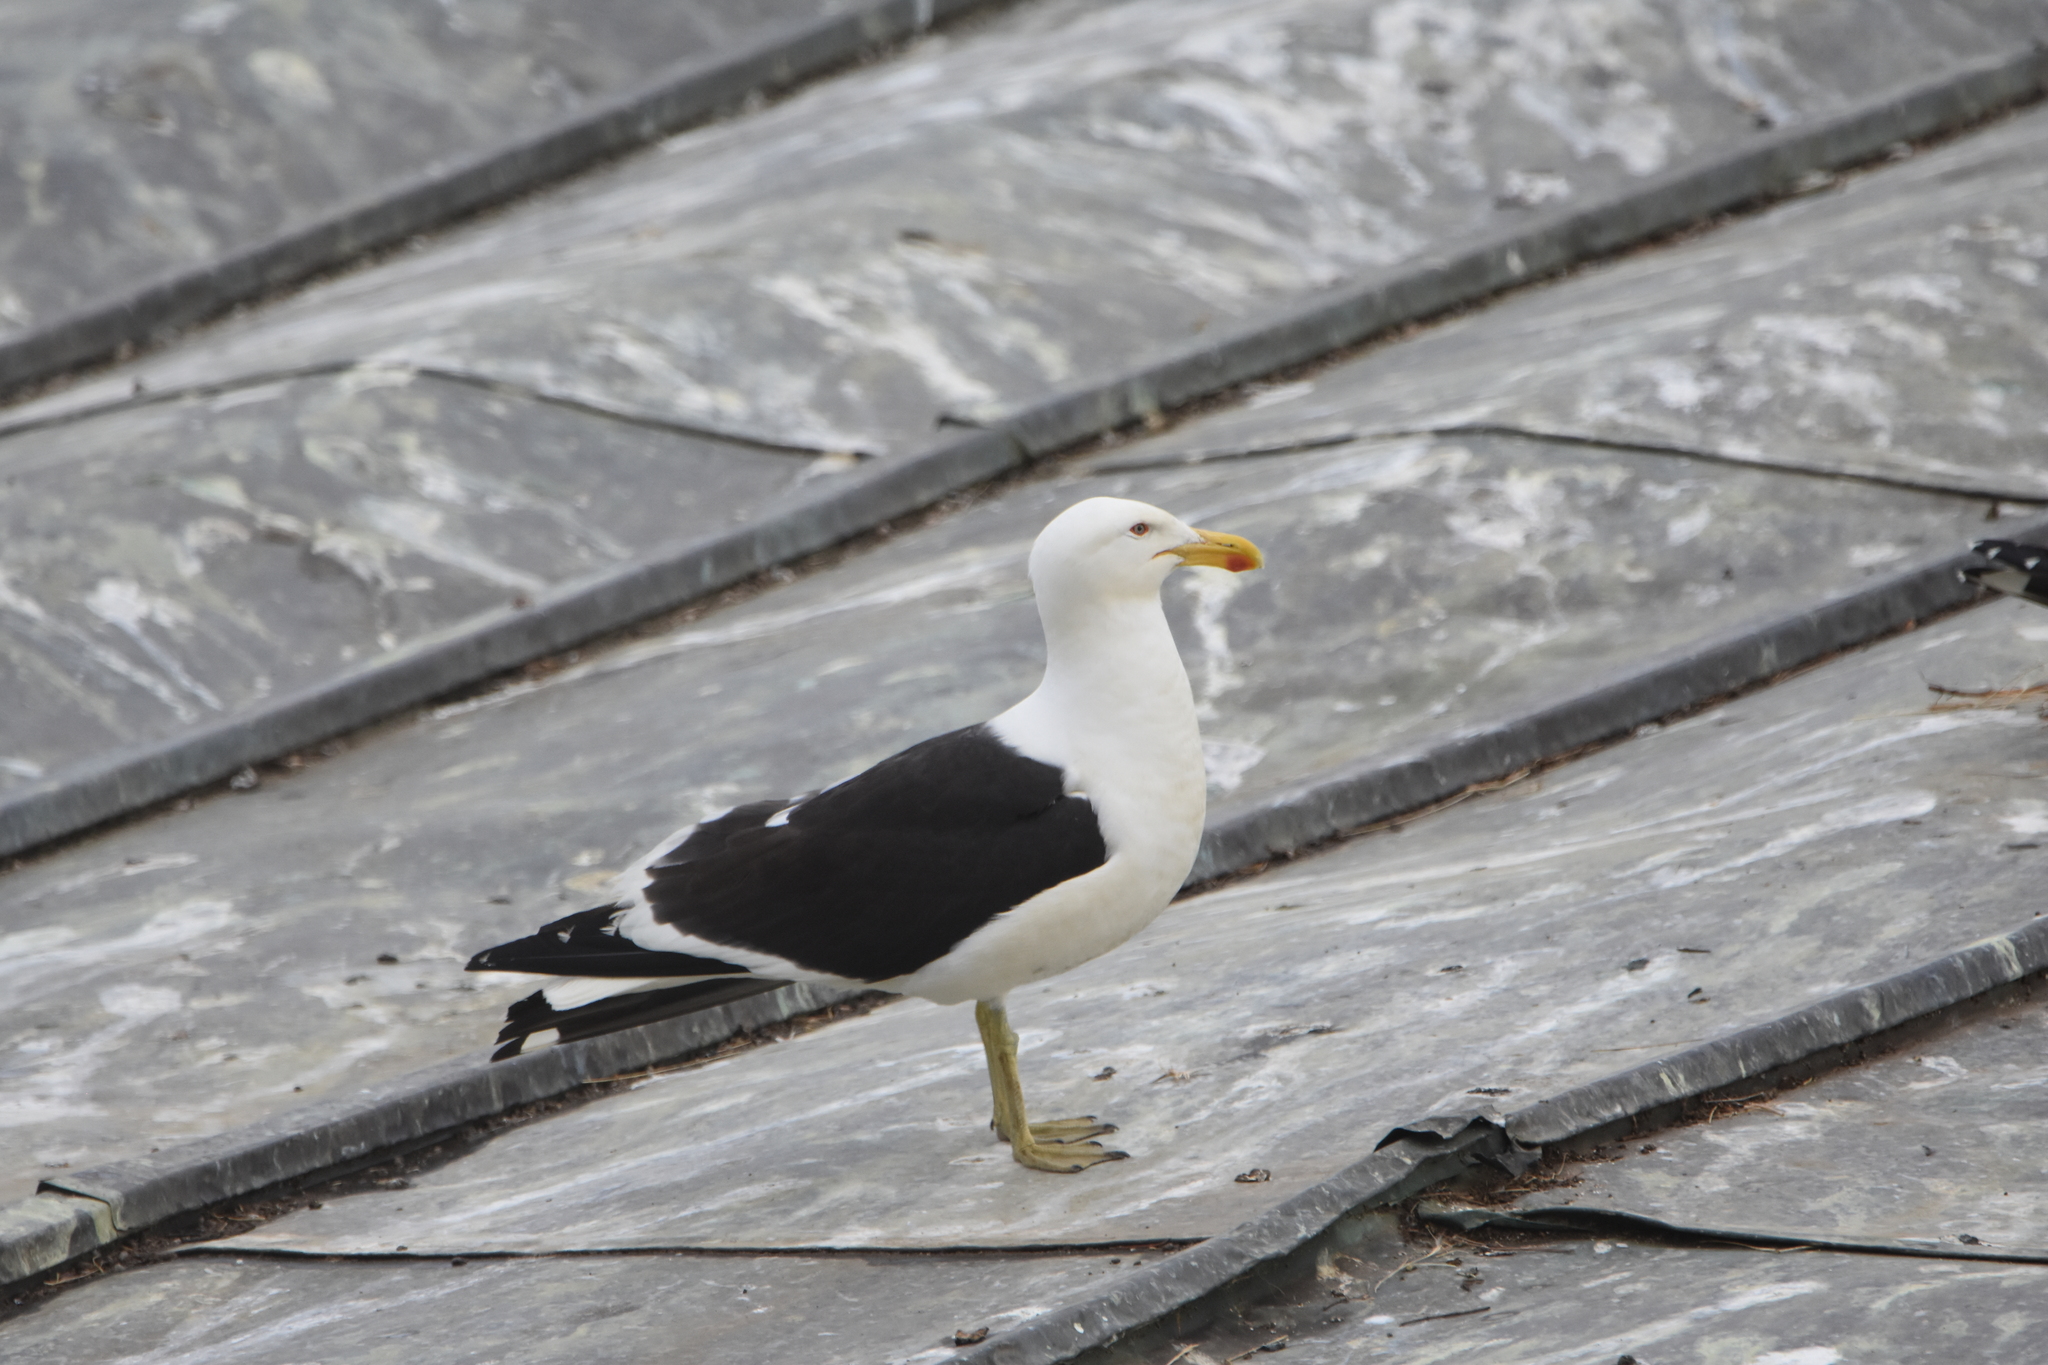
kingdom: Animalia
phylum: Chordata
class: Aves
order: Charadriiformes
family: Laridae
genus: Larus
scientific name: Larus dominicanus
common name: Kelp gull
